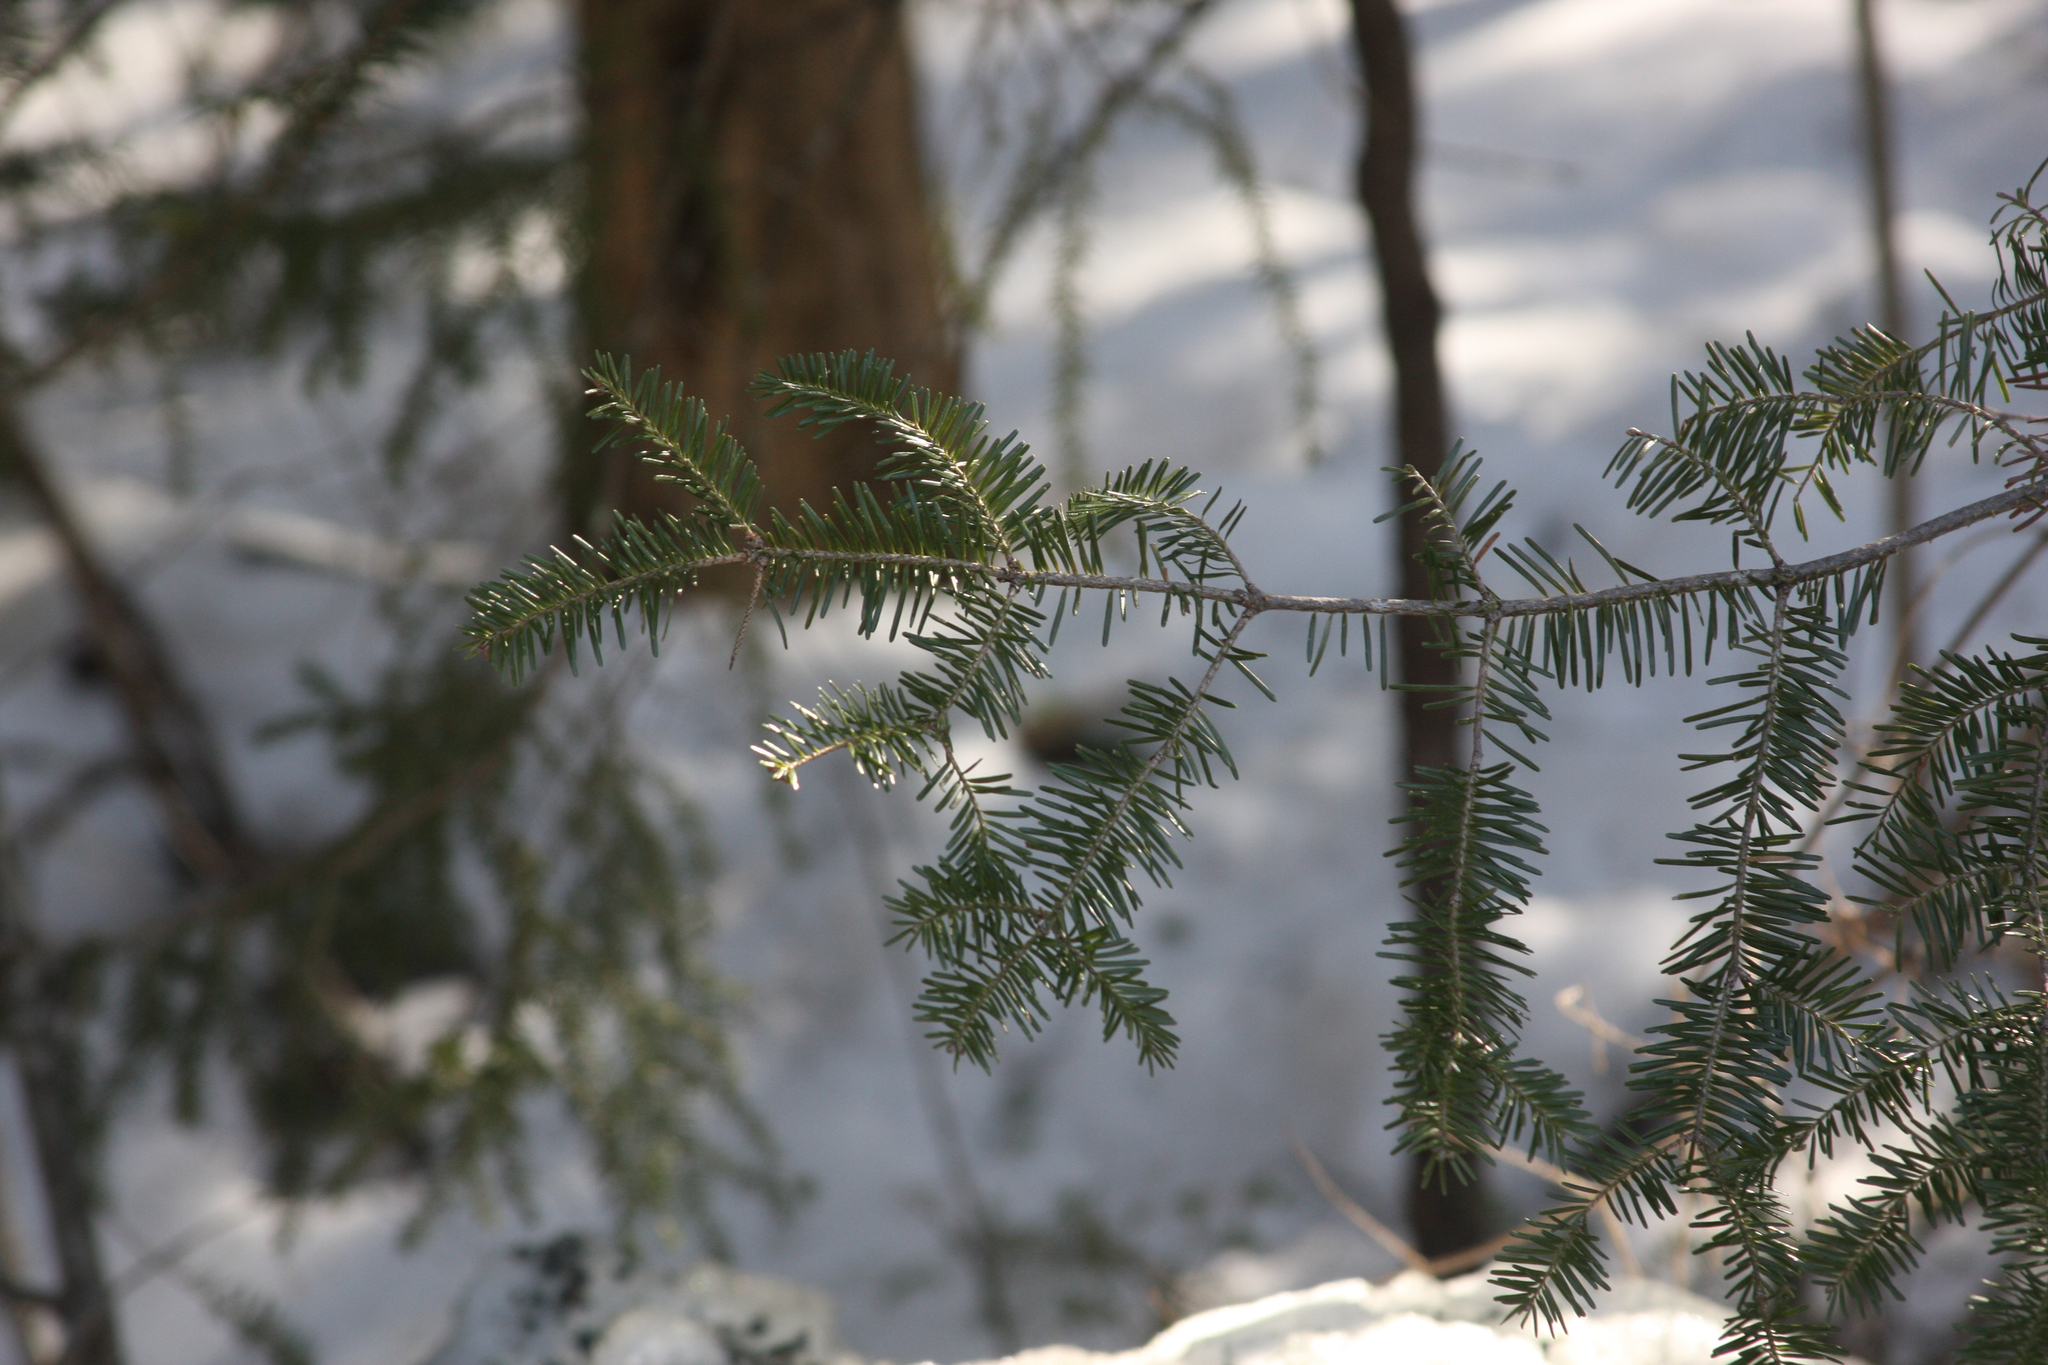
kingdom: Plantae
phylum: Tracheophyta
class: Pinopsida
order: Pinales
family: Pinaceae
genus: Abies
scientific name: Abies balsamea
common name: Balsam fir
